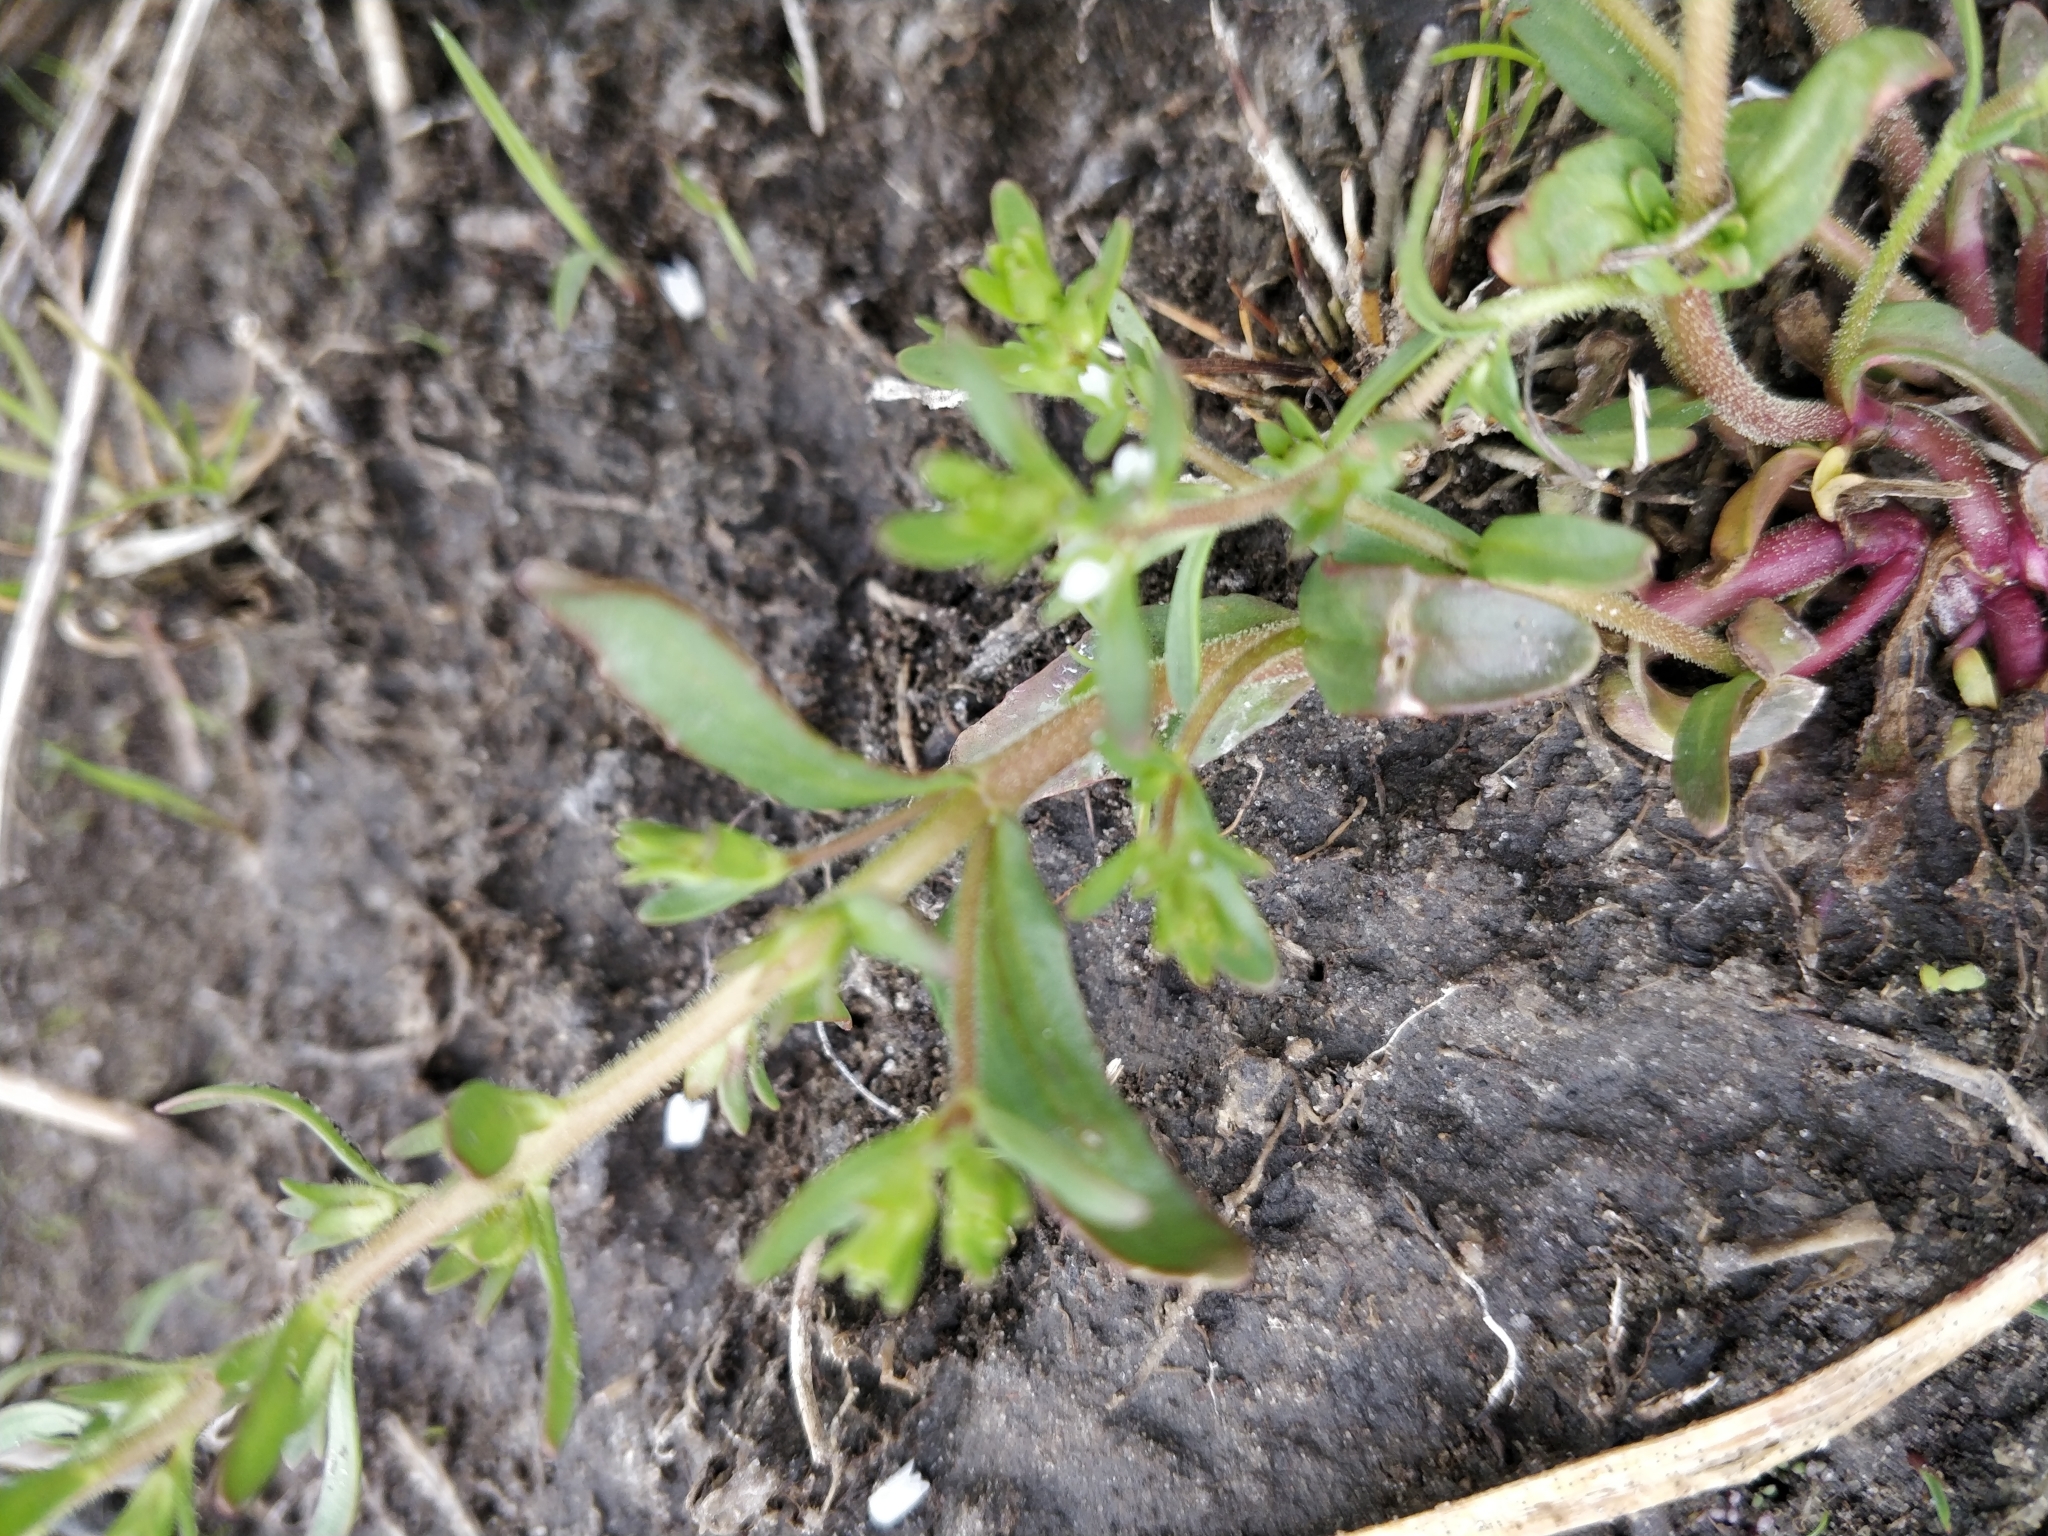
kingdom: Plantae
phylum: Tracheophyta
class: Magnoliopsida
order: Lamiales
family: Plantaginaceae
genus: Veronica
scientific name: Veronica peregrina
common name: Neckweed
